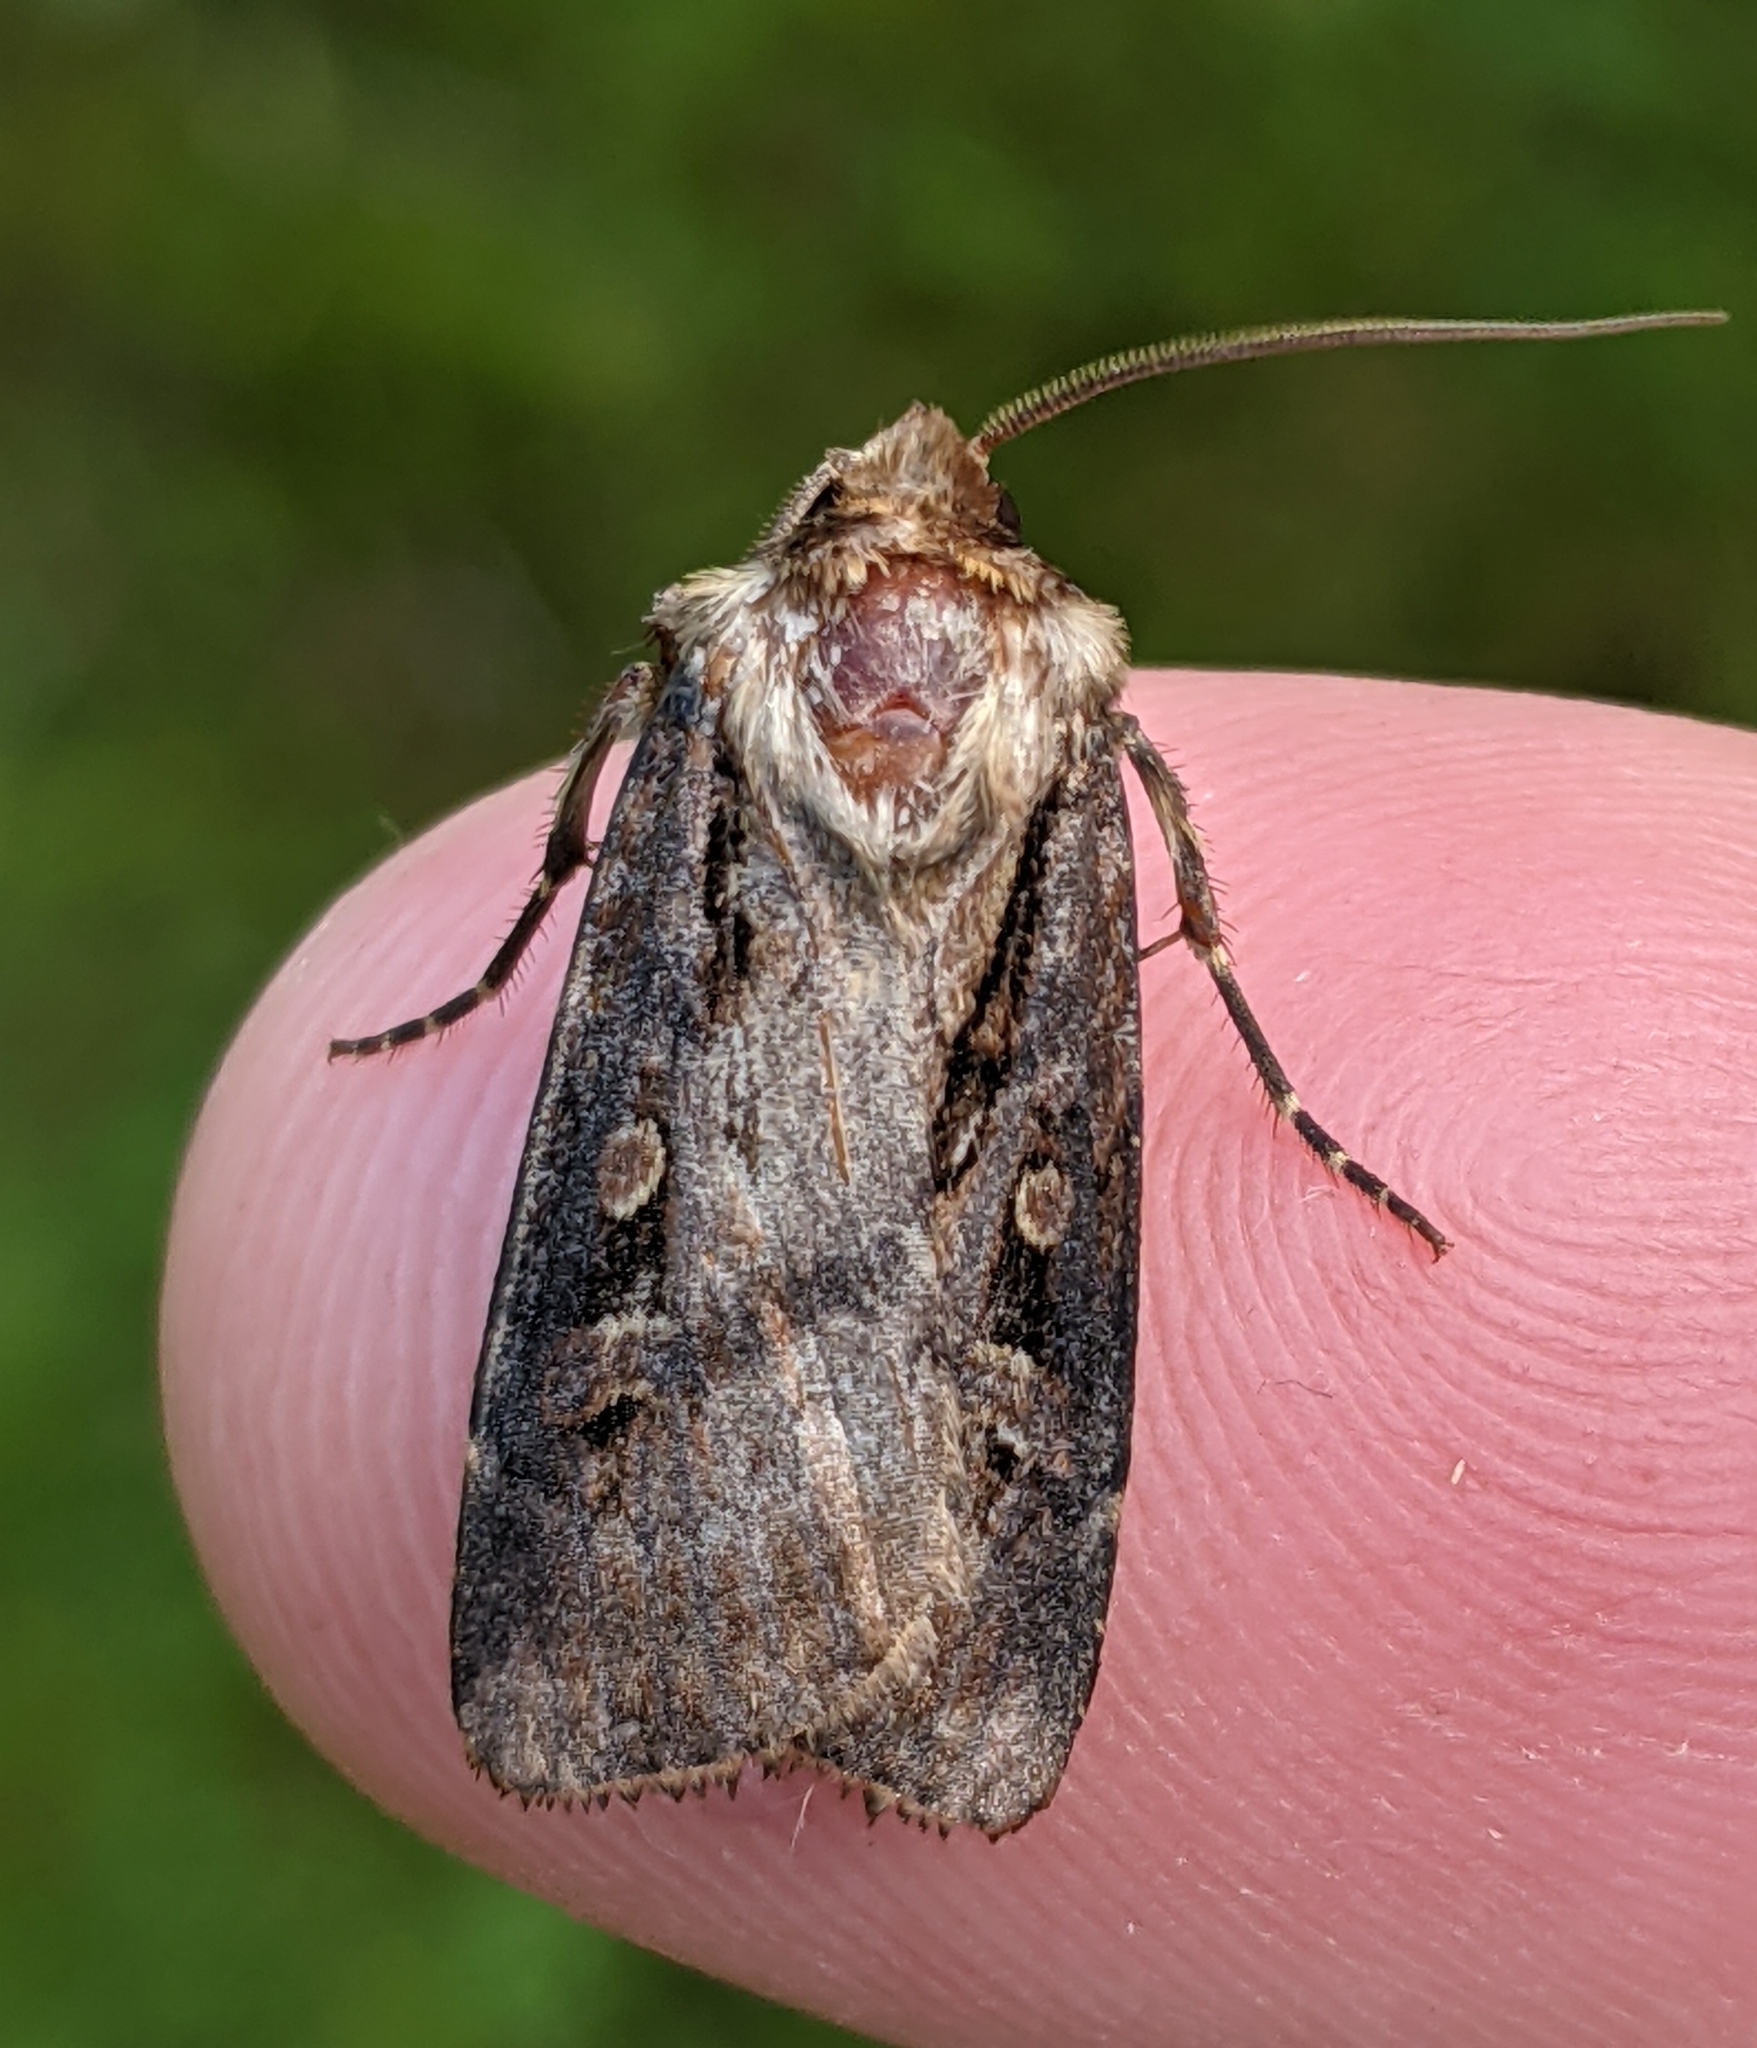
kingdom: Animalia
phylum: Arthropoda
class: Insecta
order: Lepidoptera
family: Noctuidae
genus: Agrotis
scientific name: Agrotis vancouverensis
